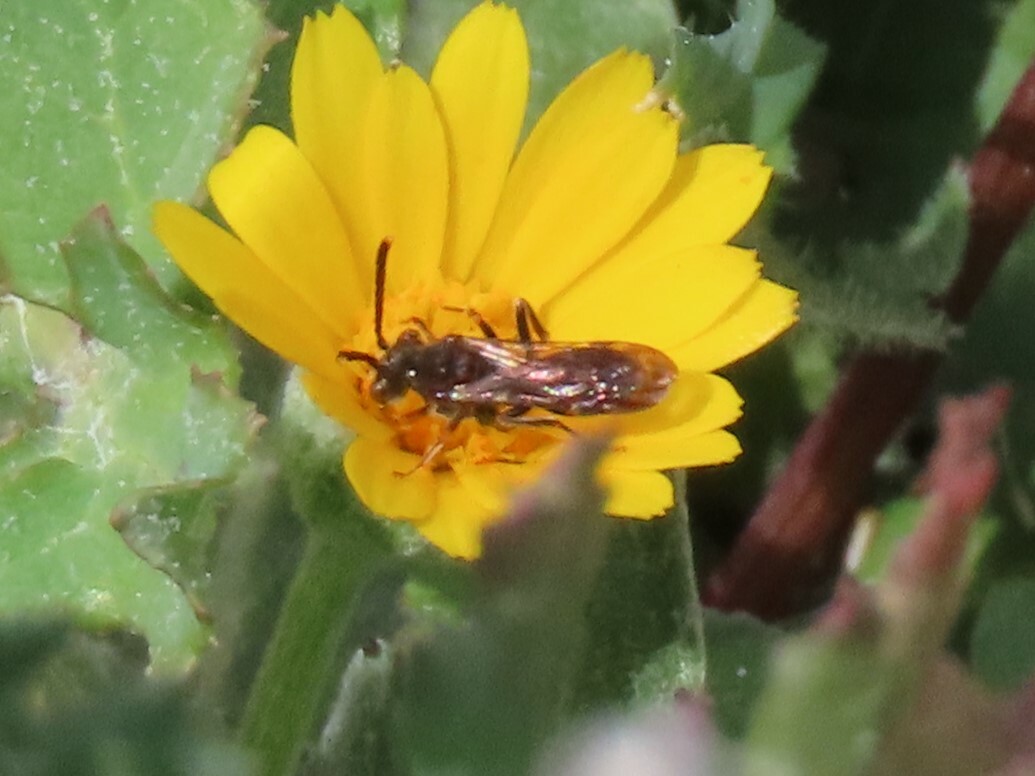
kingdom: Animalia
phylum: Arthropoda
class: Insecta
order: Hymenoptera
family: Apidae
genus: Nomada
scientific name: Nomada
